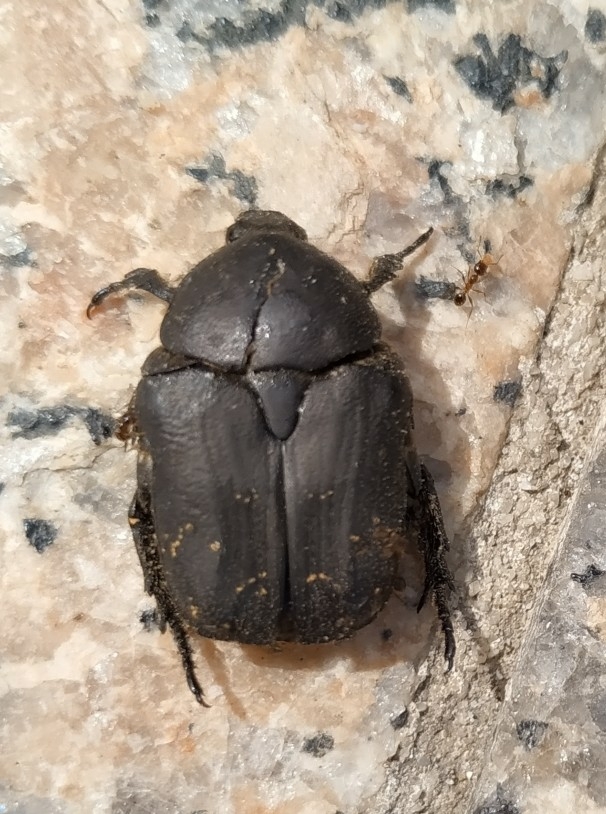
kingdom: Animalia
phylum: Arthropoda
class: Insecta
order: Coleoptera
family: Scarabaeidae
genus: Protaetia
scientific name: Protaetia morio
